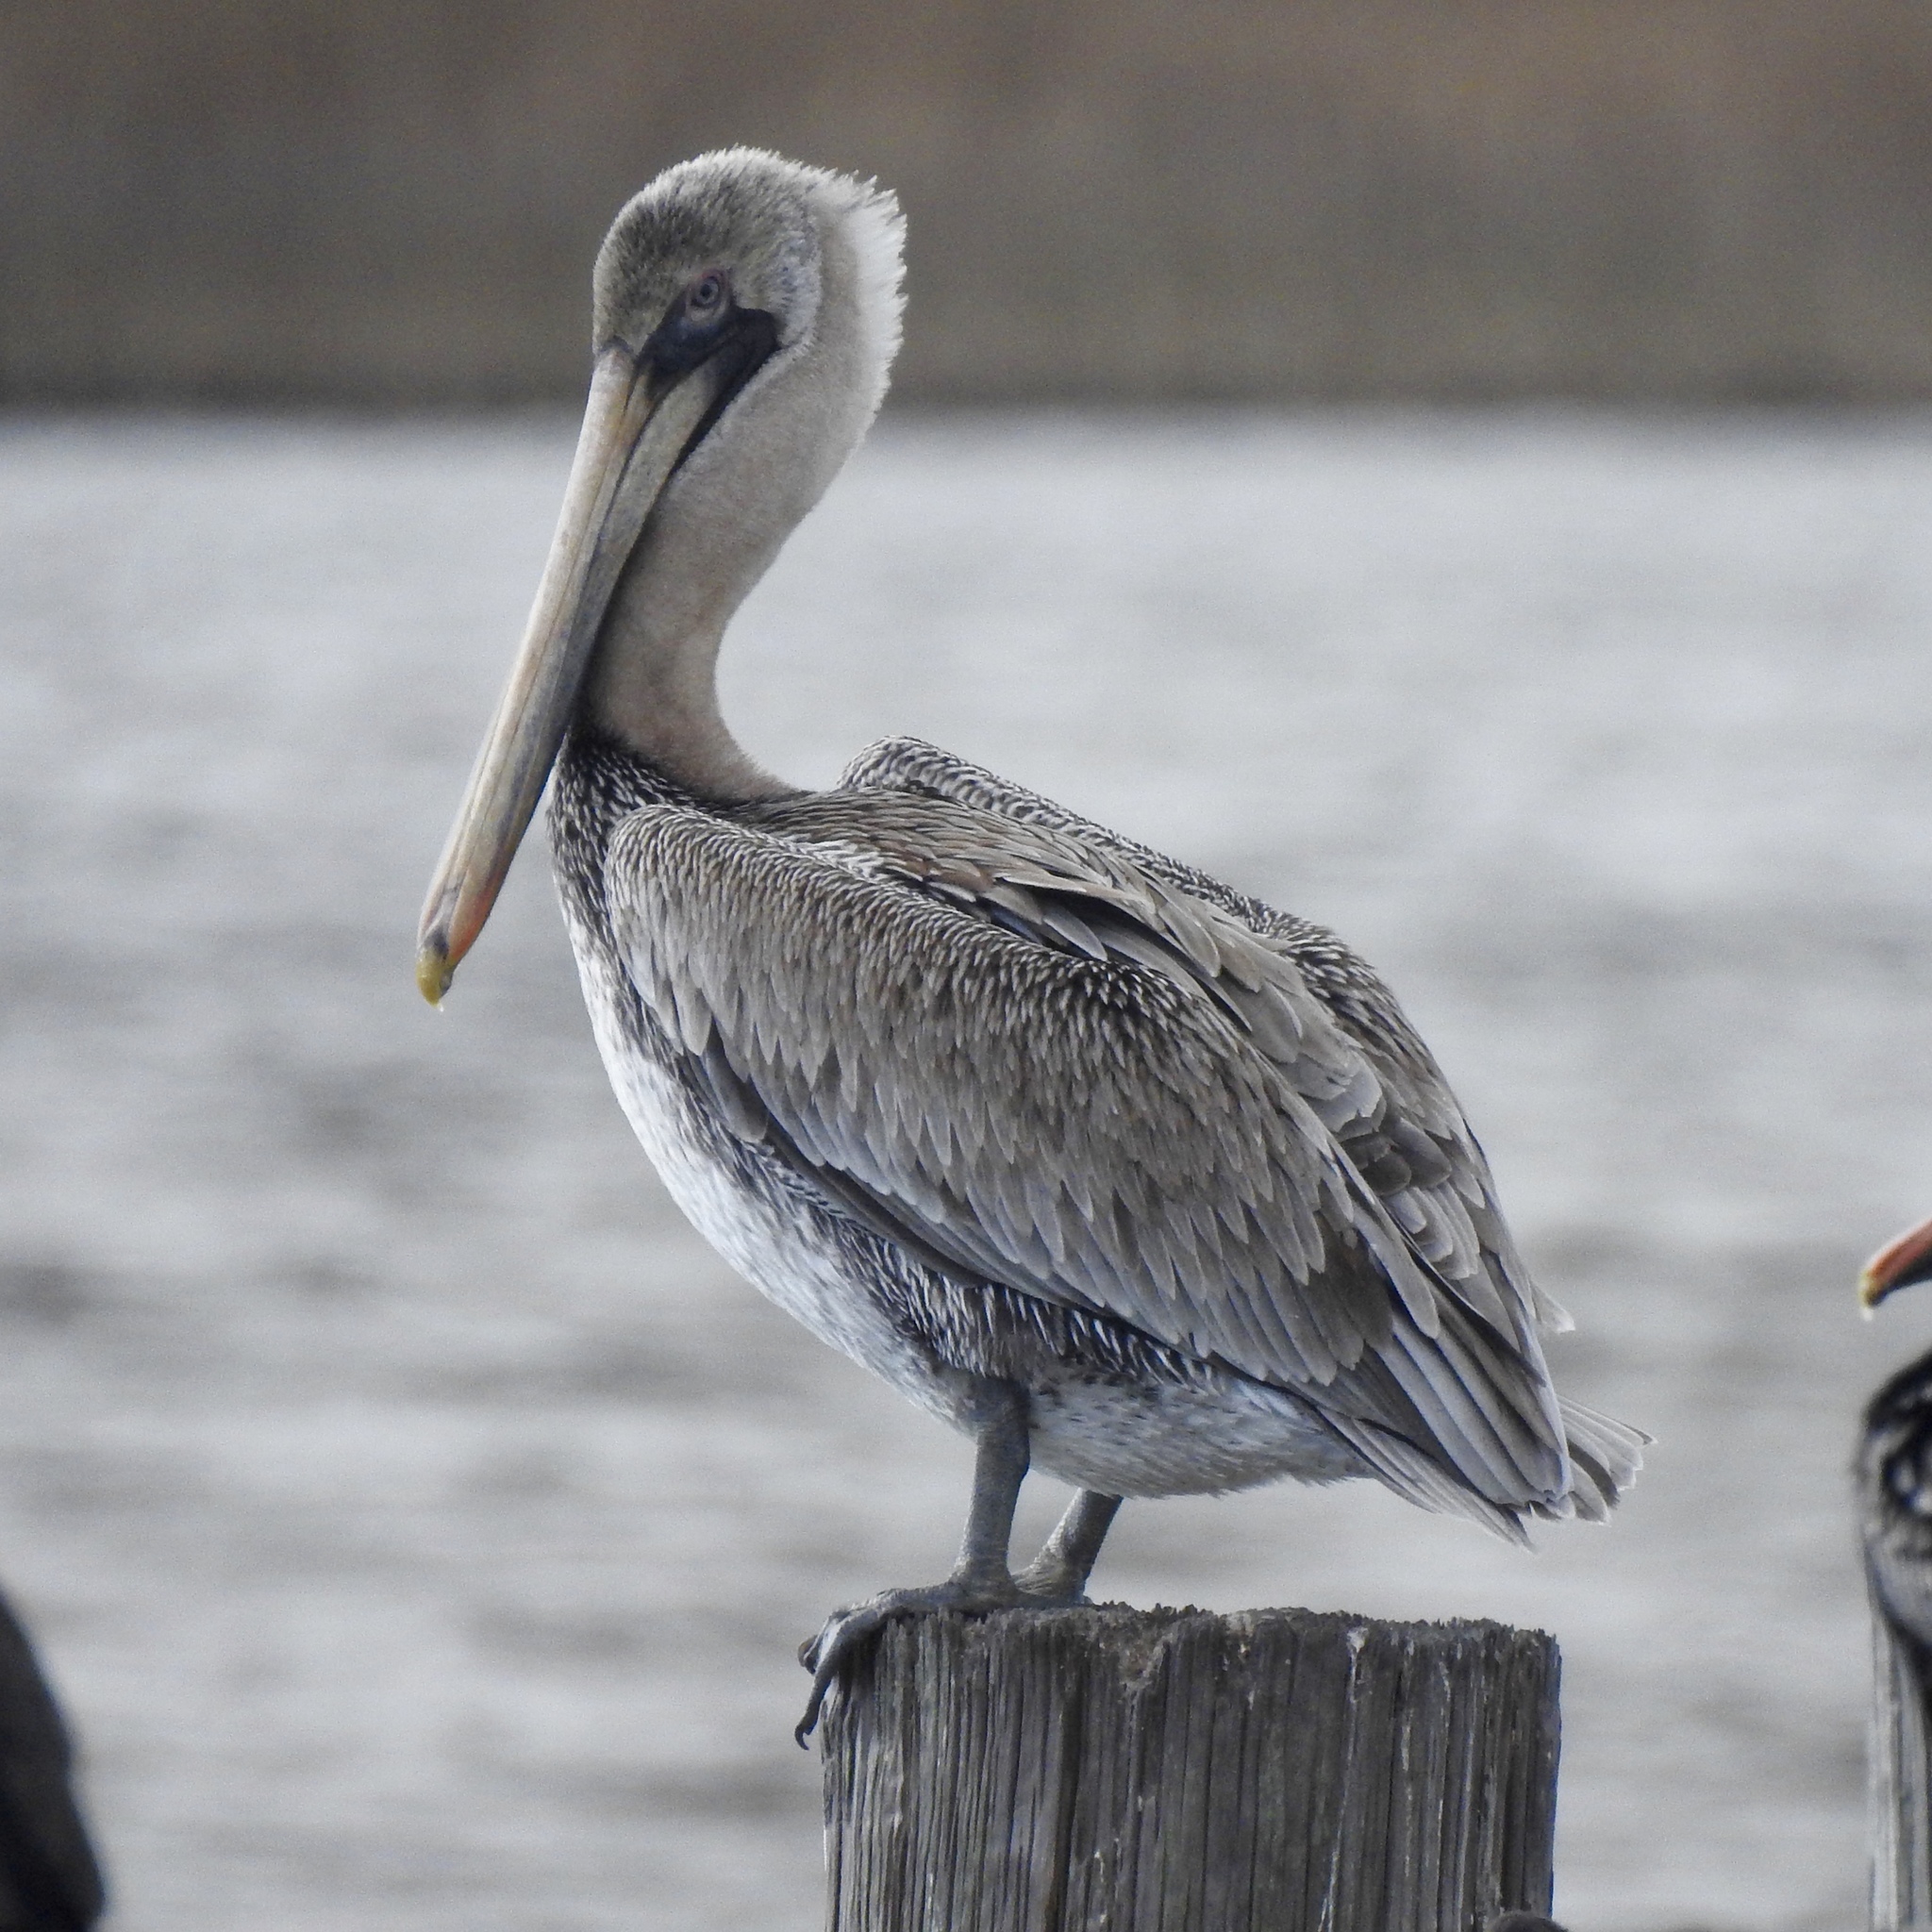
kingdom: Animalia
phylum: Chordata
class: Aves
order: Pelecaniformes
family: Pelecanidae
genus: Pelecanus
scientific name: Pelecanus occidentalis
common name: Brown pelican
